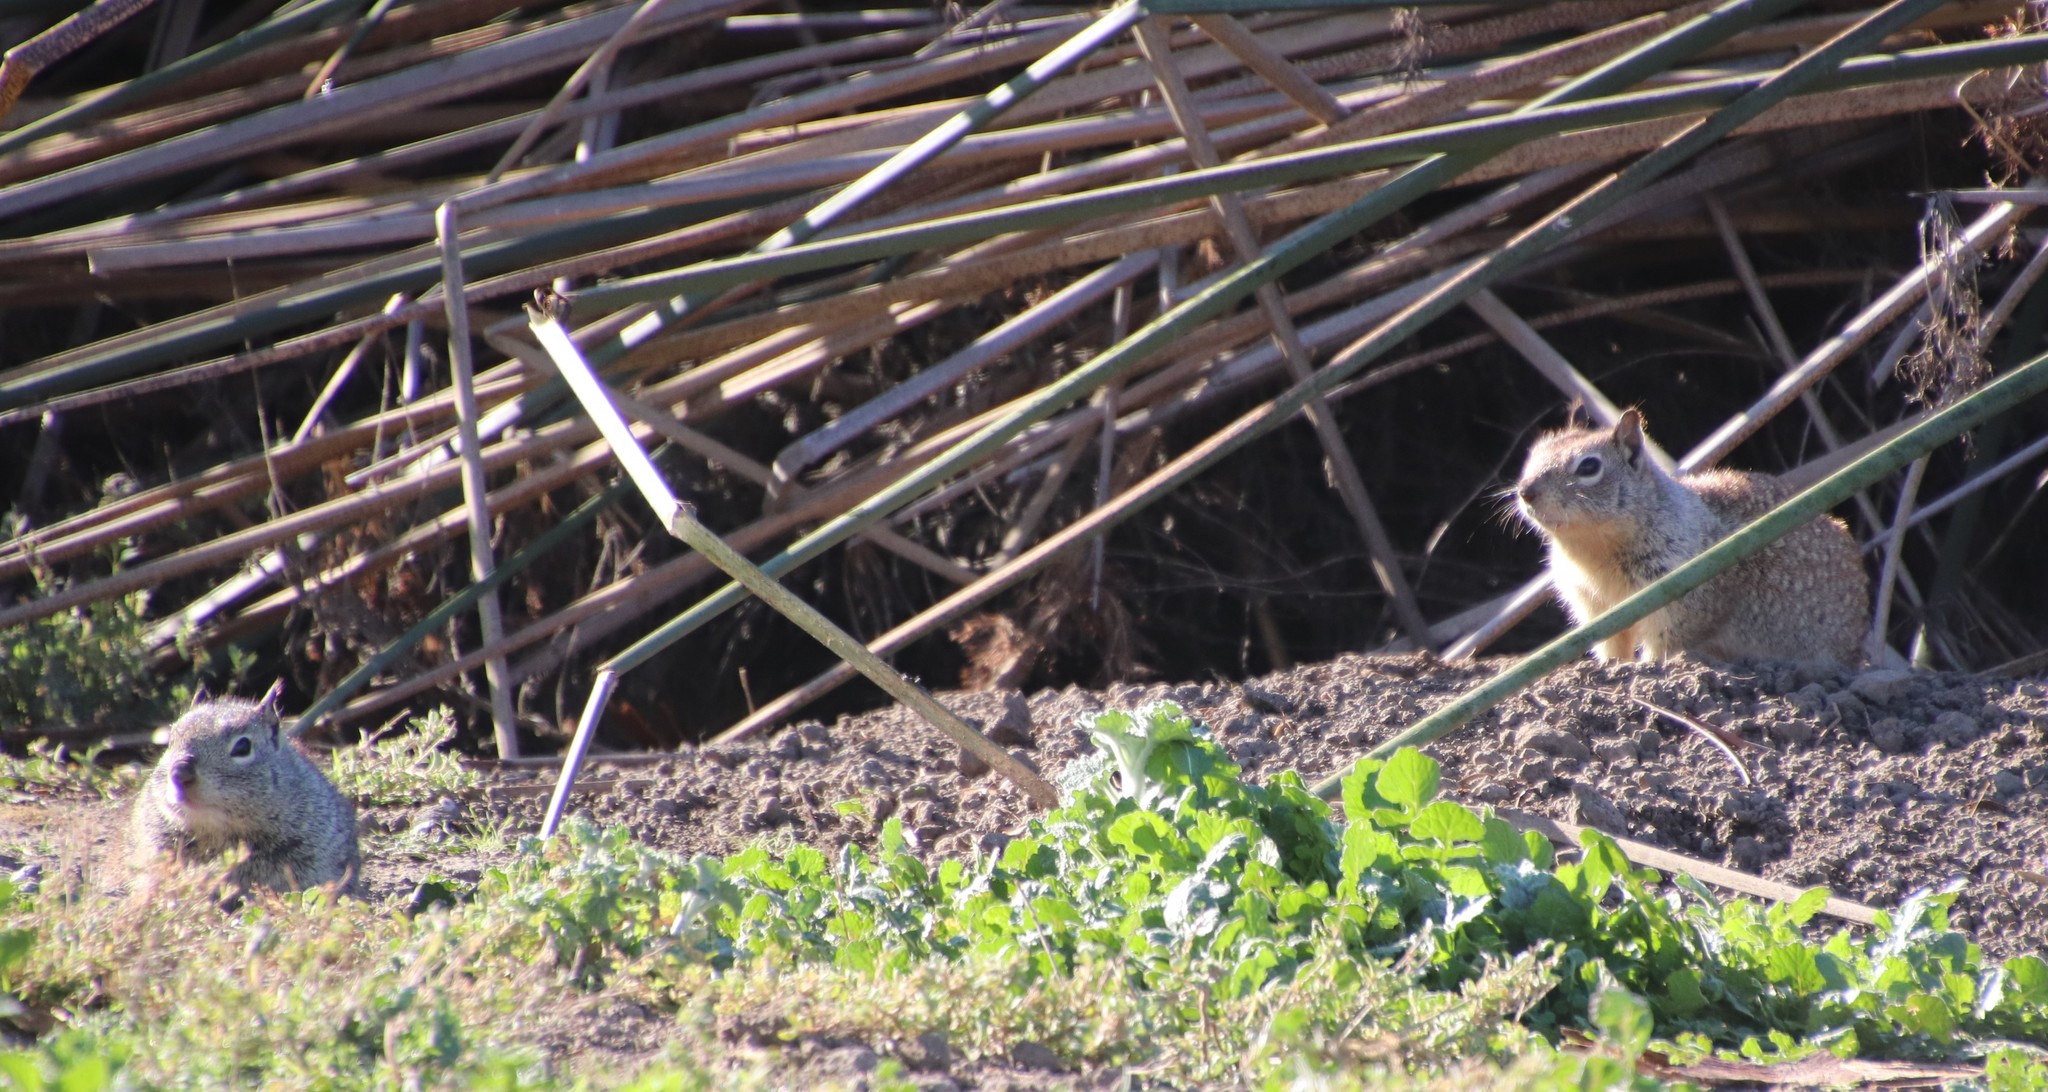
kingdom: Animalia
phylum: Chordata
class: Mammalia
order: Rodentia
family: Sciuridae
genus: Otospermophilus
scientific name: Otospermophilus beecheyi
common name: California ground squirrel
